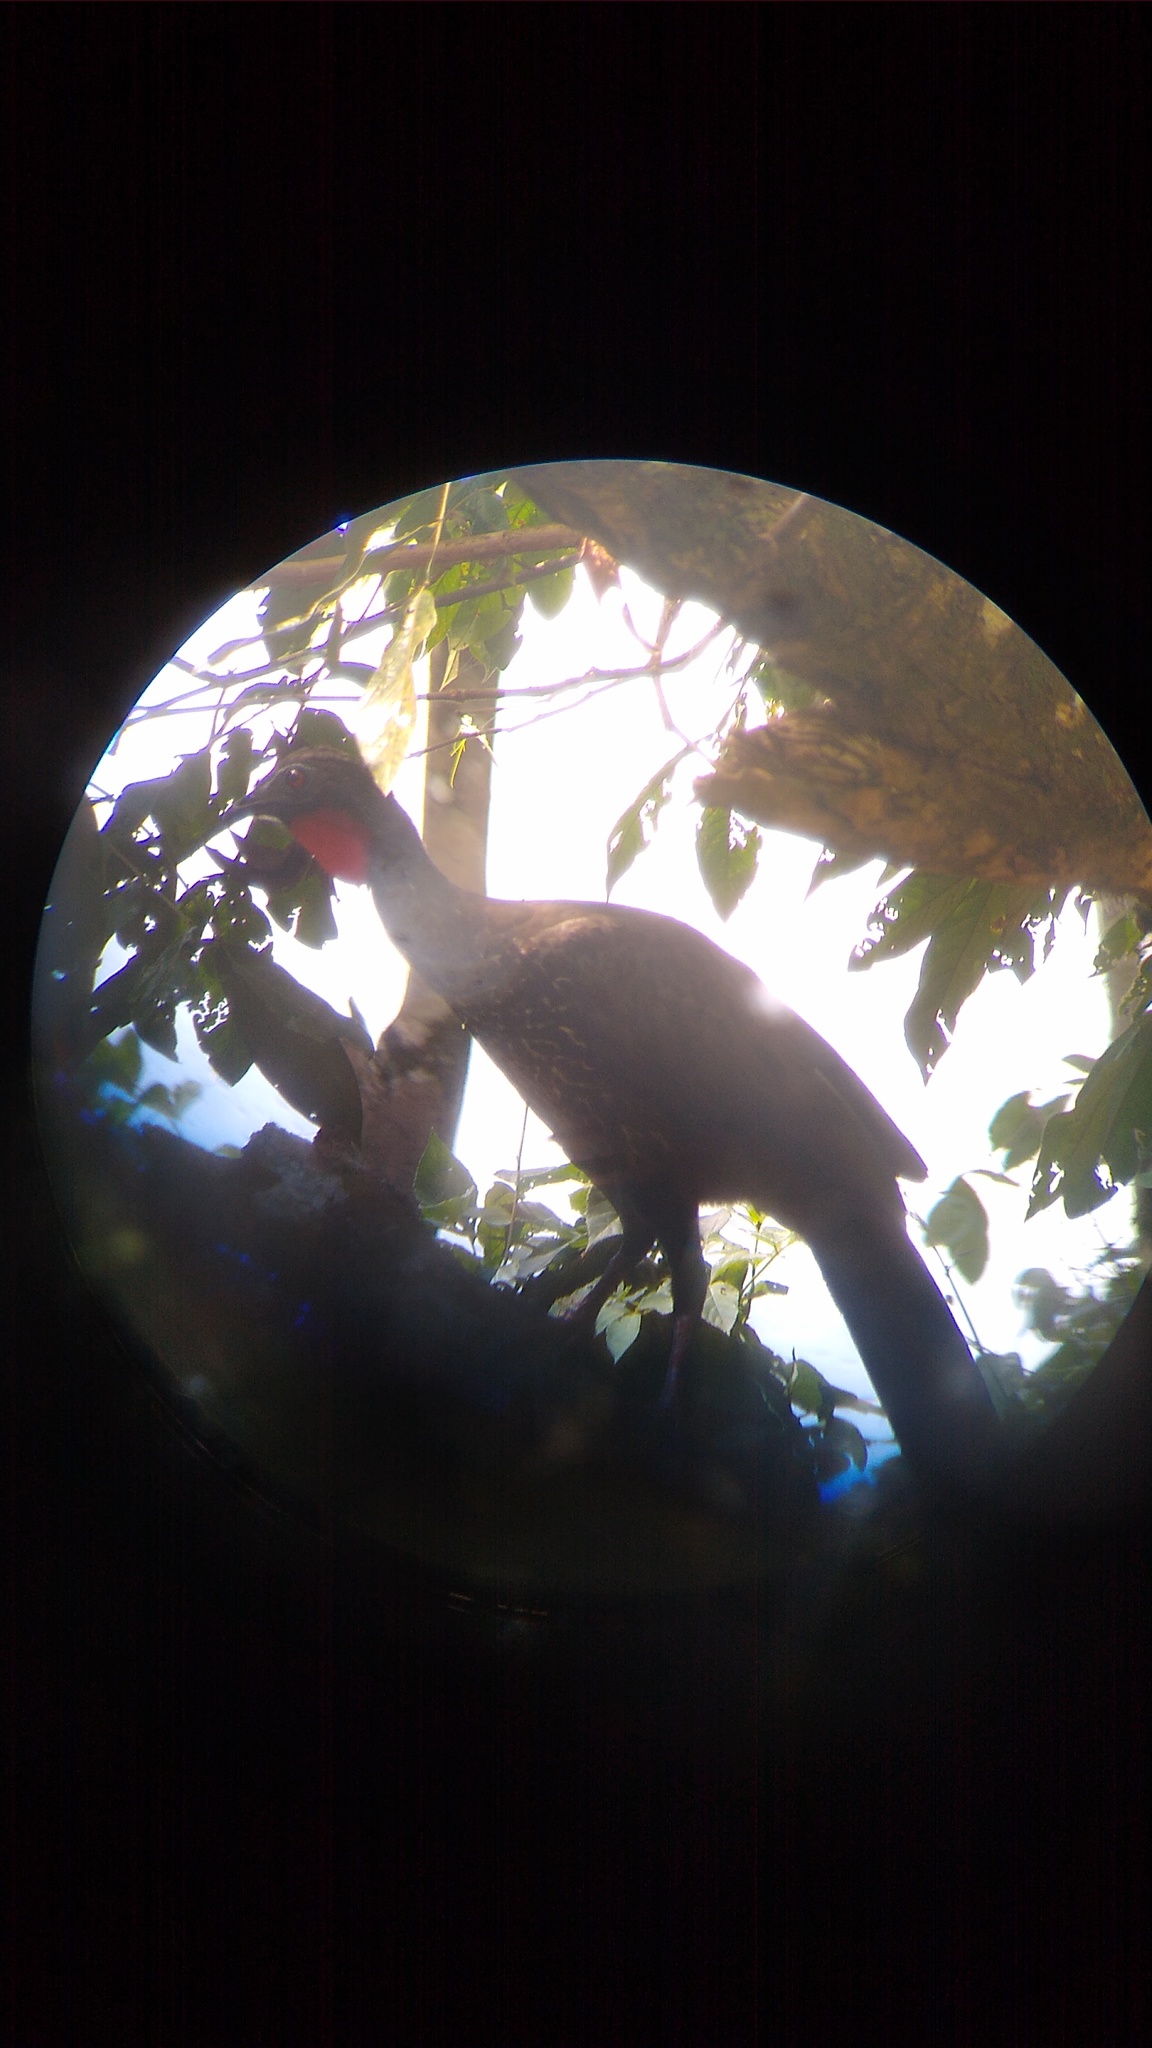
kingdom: Animalia
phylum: Chordata
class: Aves
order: Galliformes
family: Cracidae
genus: Penelope
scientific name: Penelope purpurascens
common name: Crested guan
